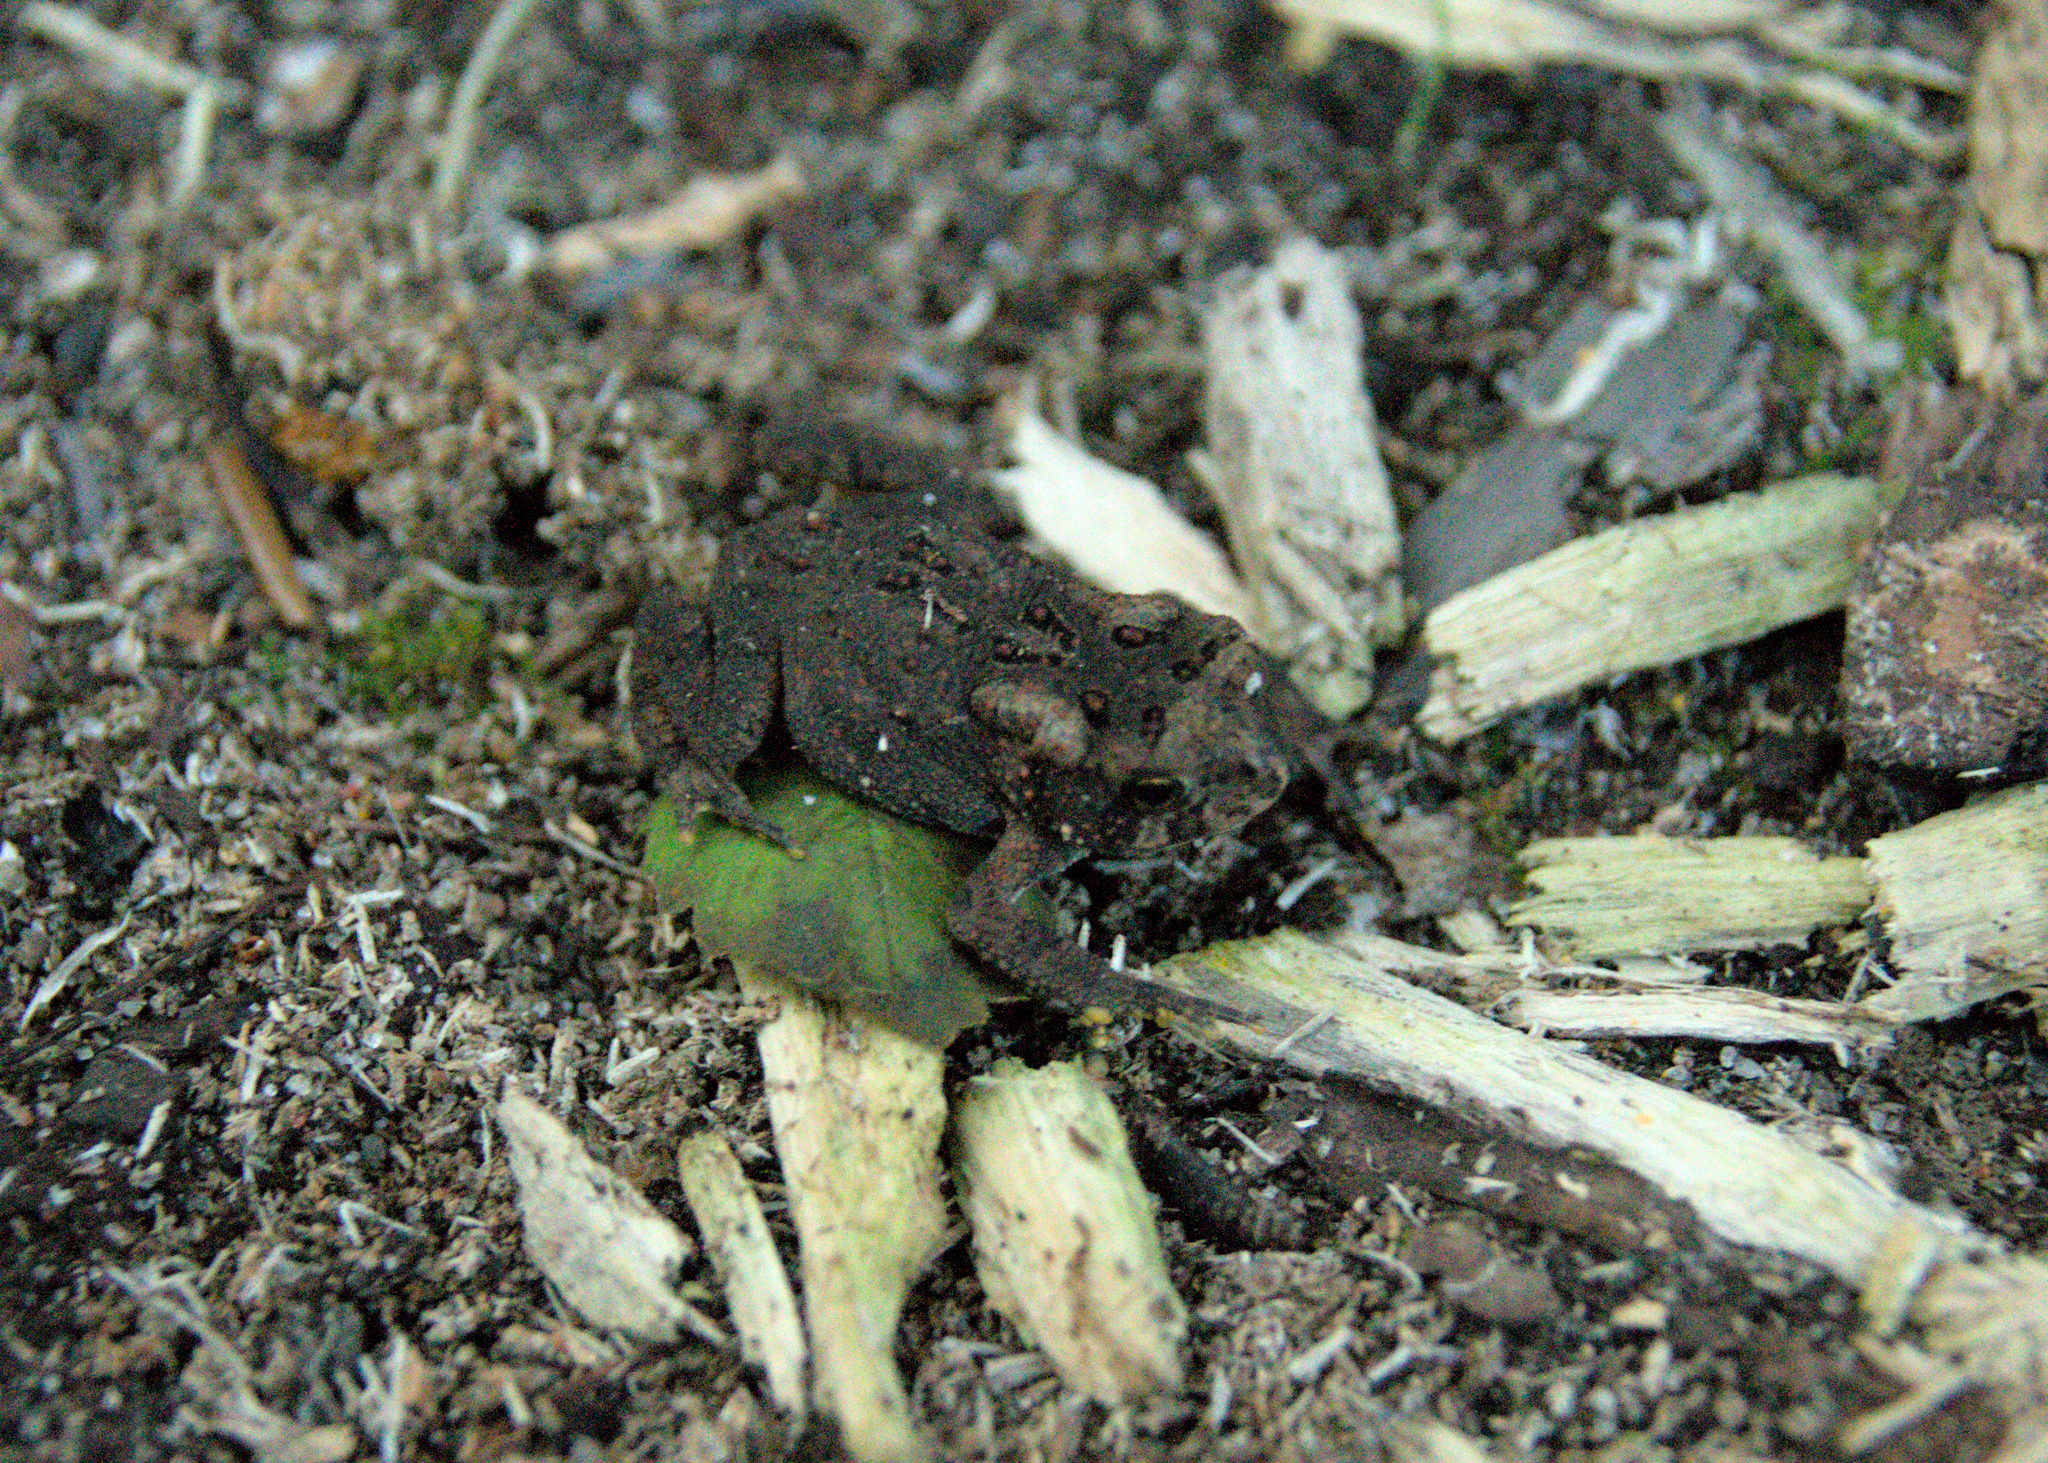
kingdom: Animalia
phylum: Chordata
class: Amphibia
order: Anura
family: Bufonidae
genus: Anaxyrus
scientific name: Anaxyrus americanus
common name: American toad
